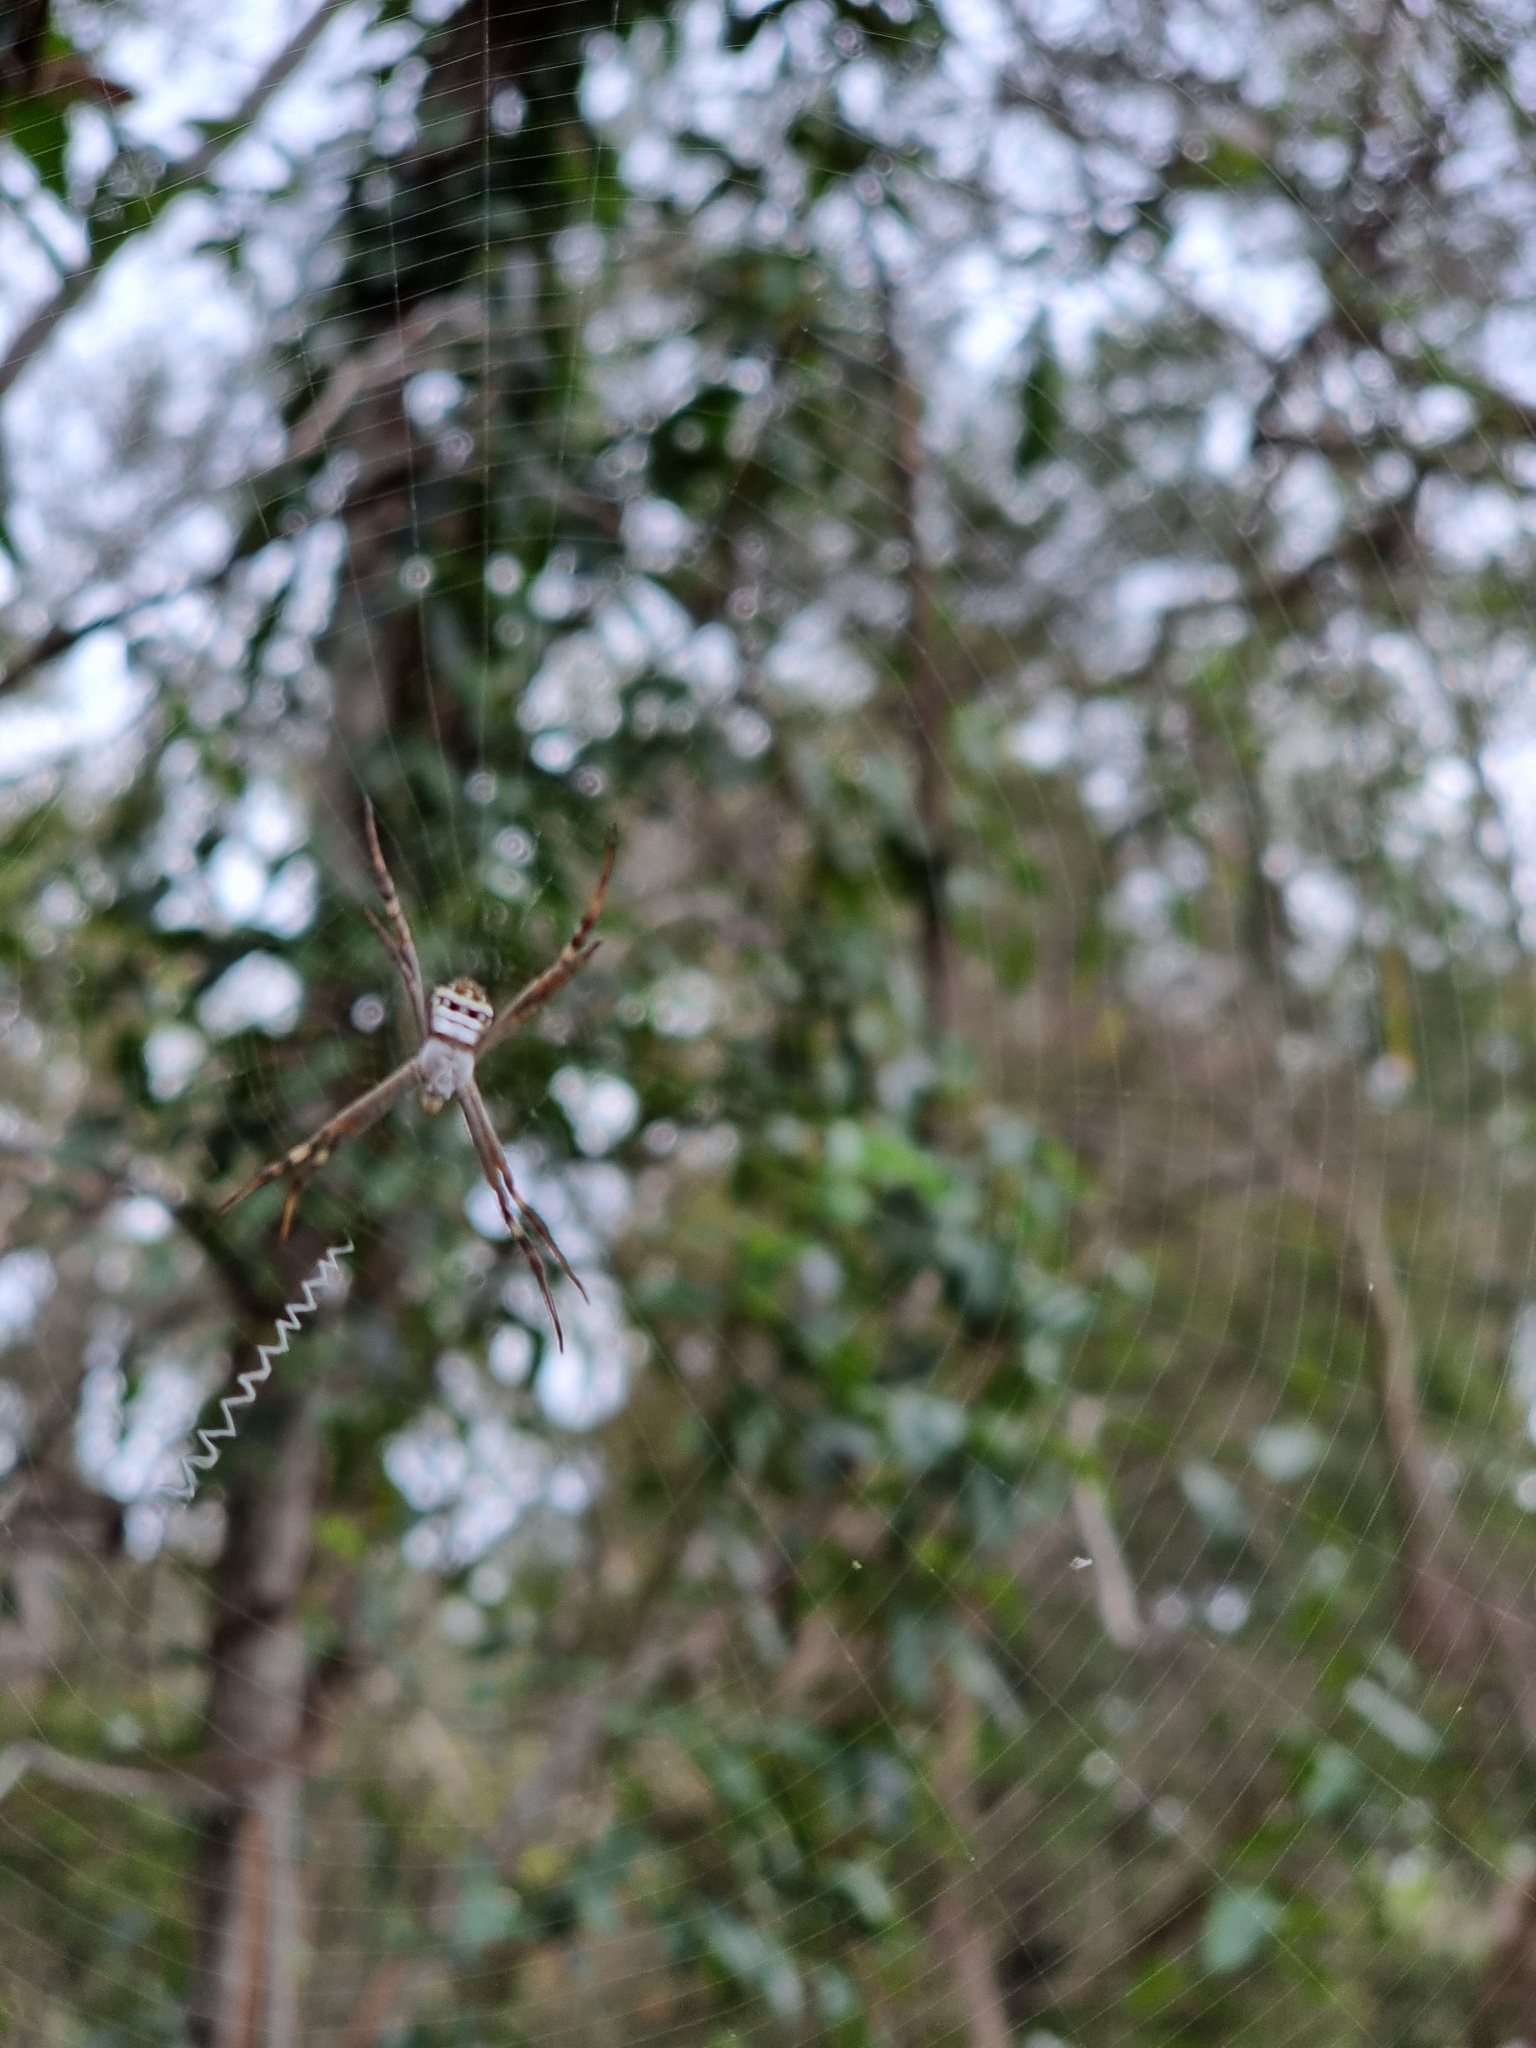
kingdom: Animalia
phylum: Arthropoda
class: Arachnida
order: Araneae
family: Araneidae
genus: Argiope
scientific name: Argiope keyserlingi
